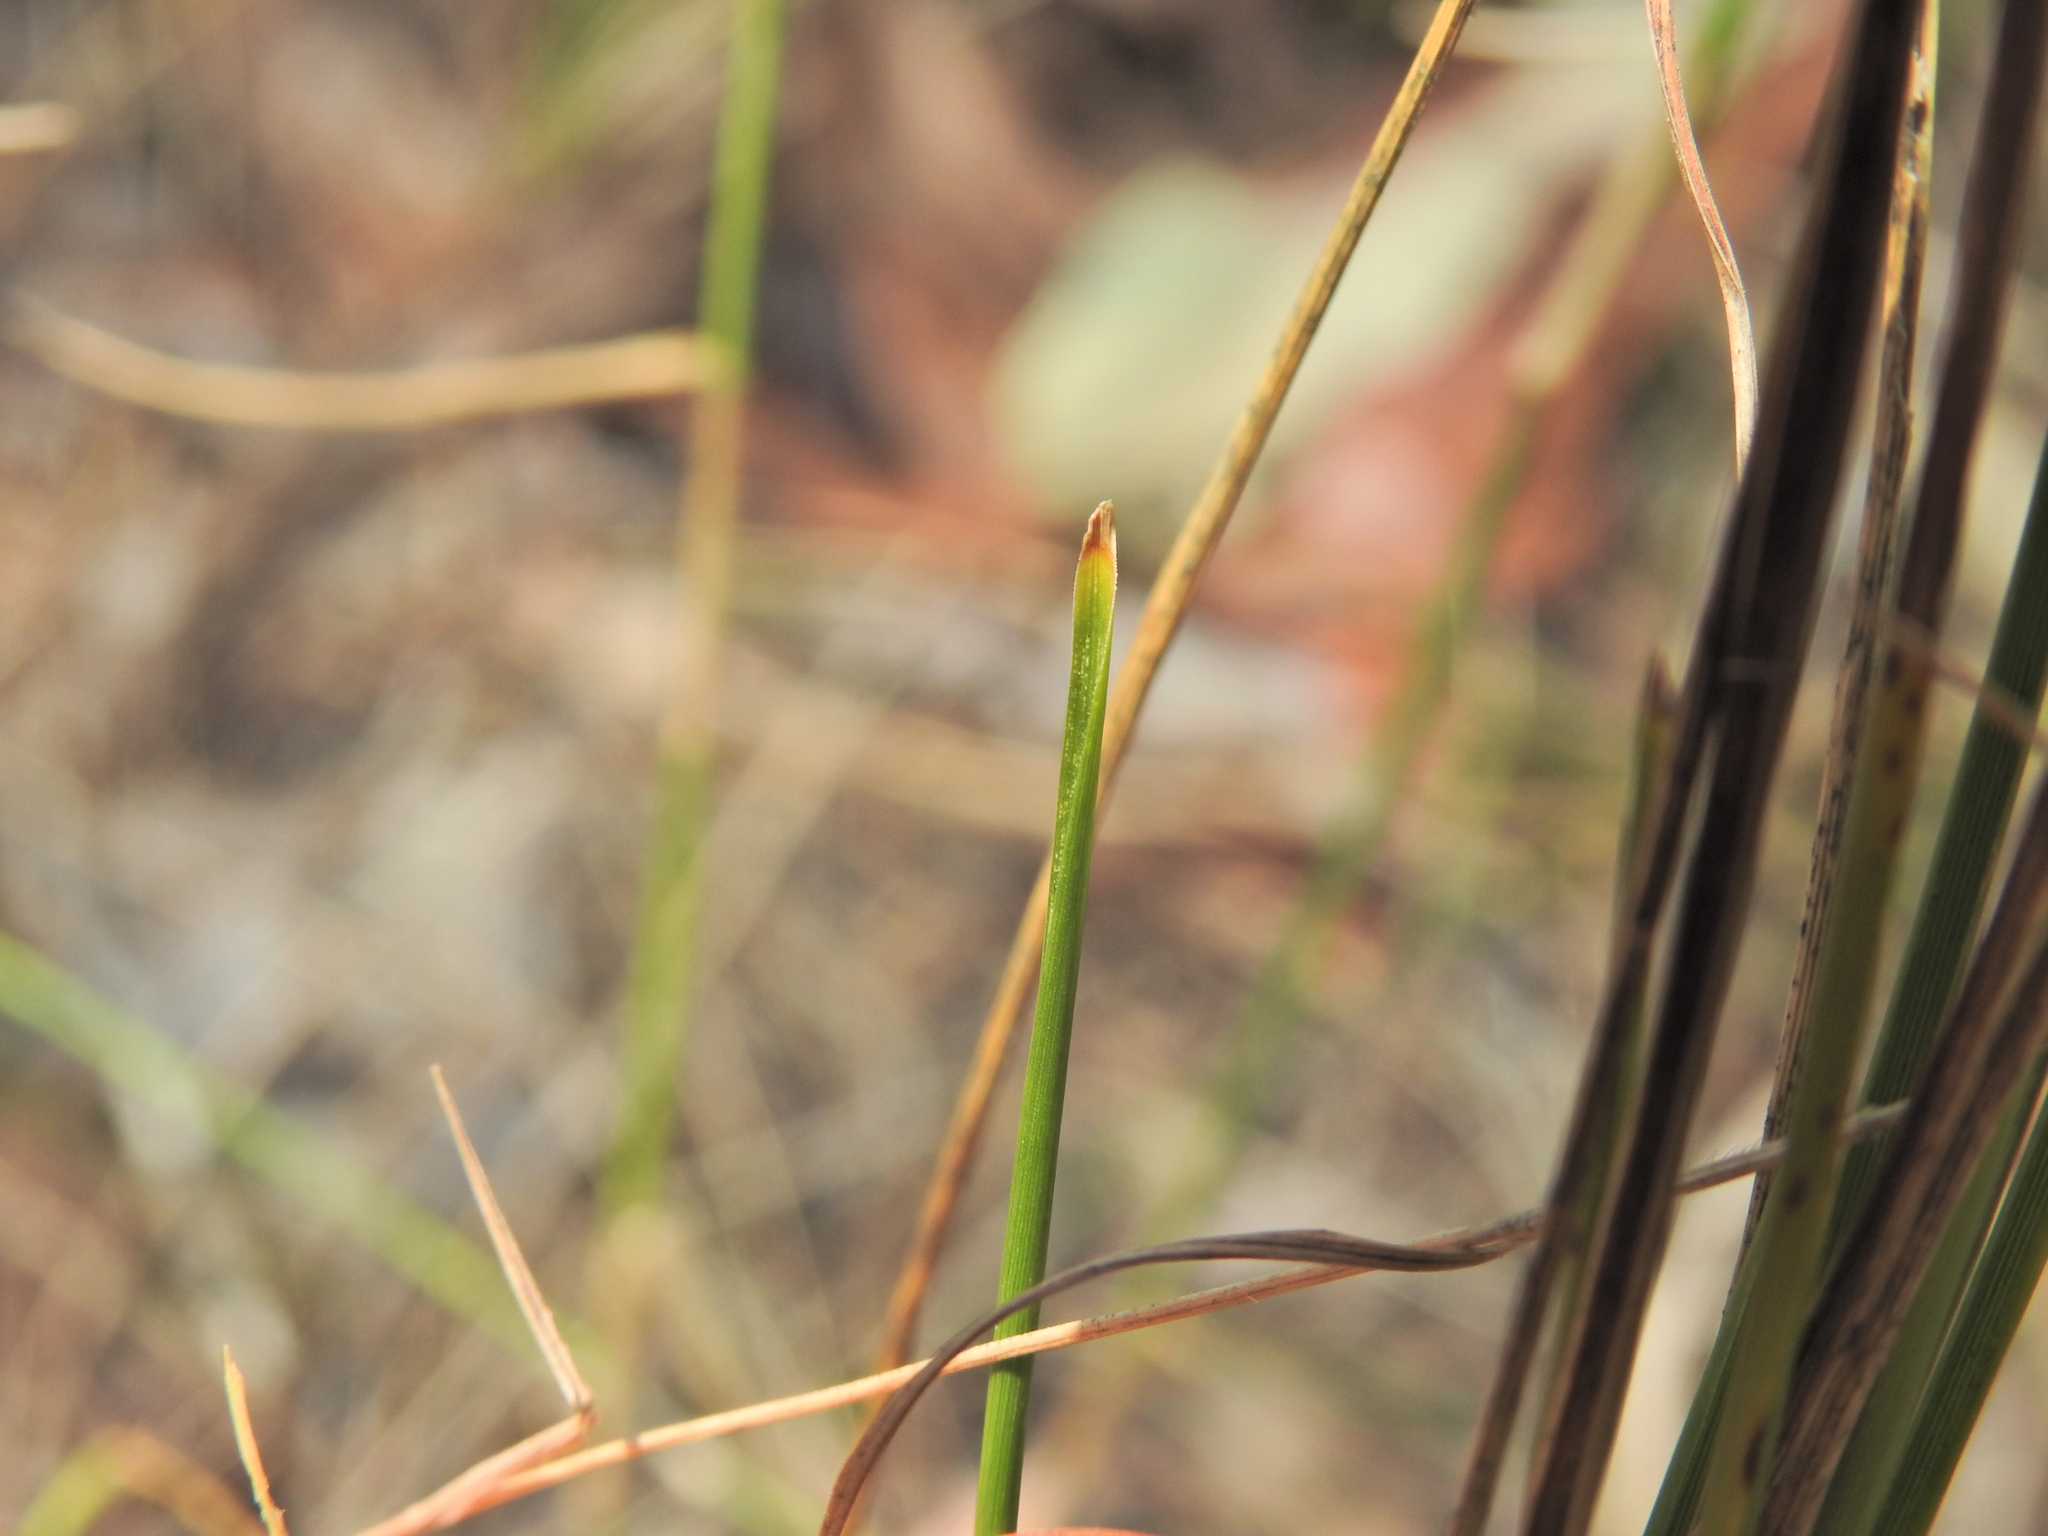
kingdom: Plantae
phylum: Tracheophyta
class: Liliopsida
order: Asparagales
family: Asparagaceae
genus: Lomandra
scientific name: Lomandra filiformis
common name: Wattle mat-rush
